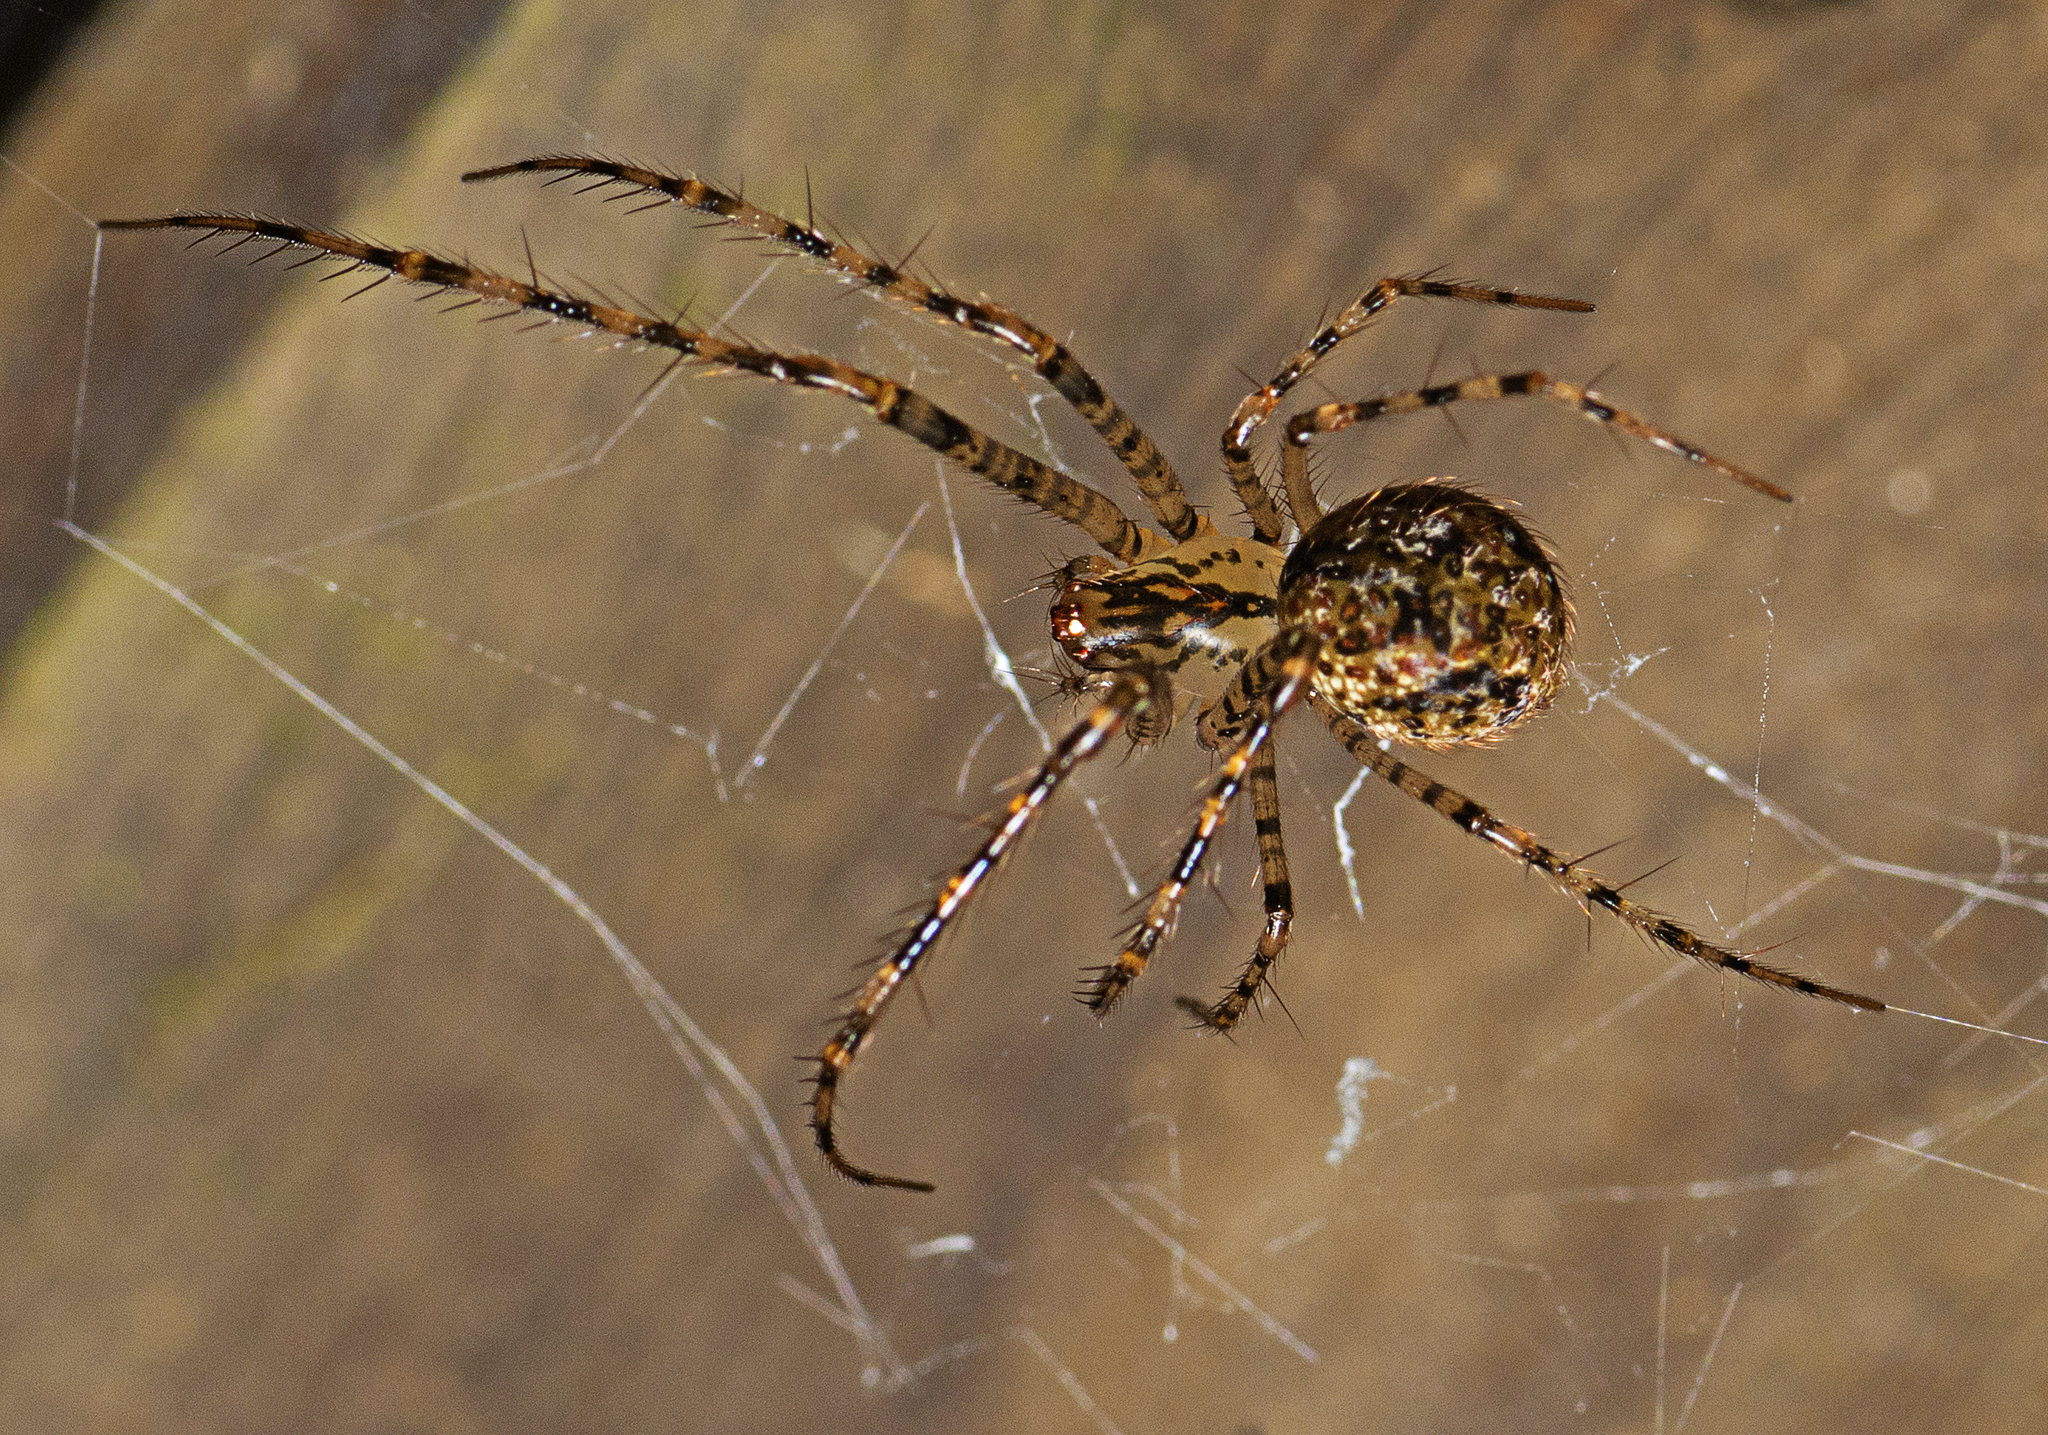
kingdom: Animalia
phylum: Arthropoda
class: Arachnida
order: Araneae
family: Mimetidae
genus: Australomimetus
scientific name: Australomimetus maculosus
